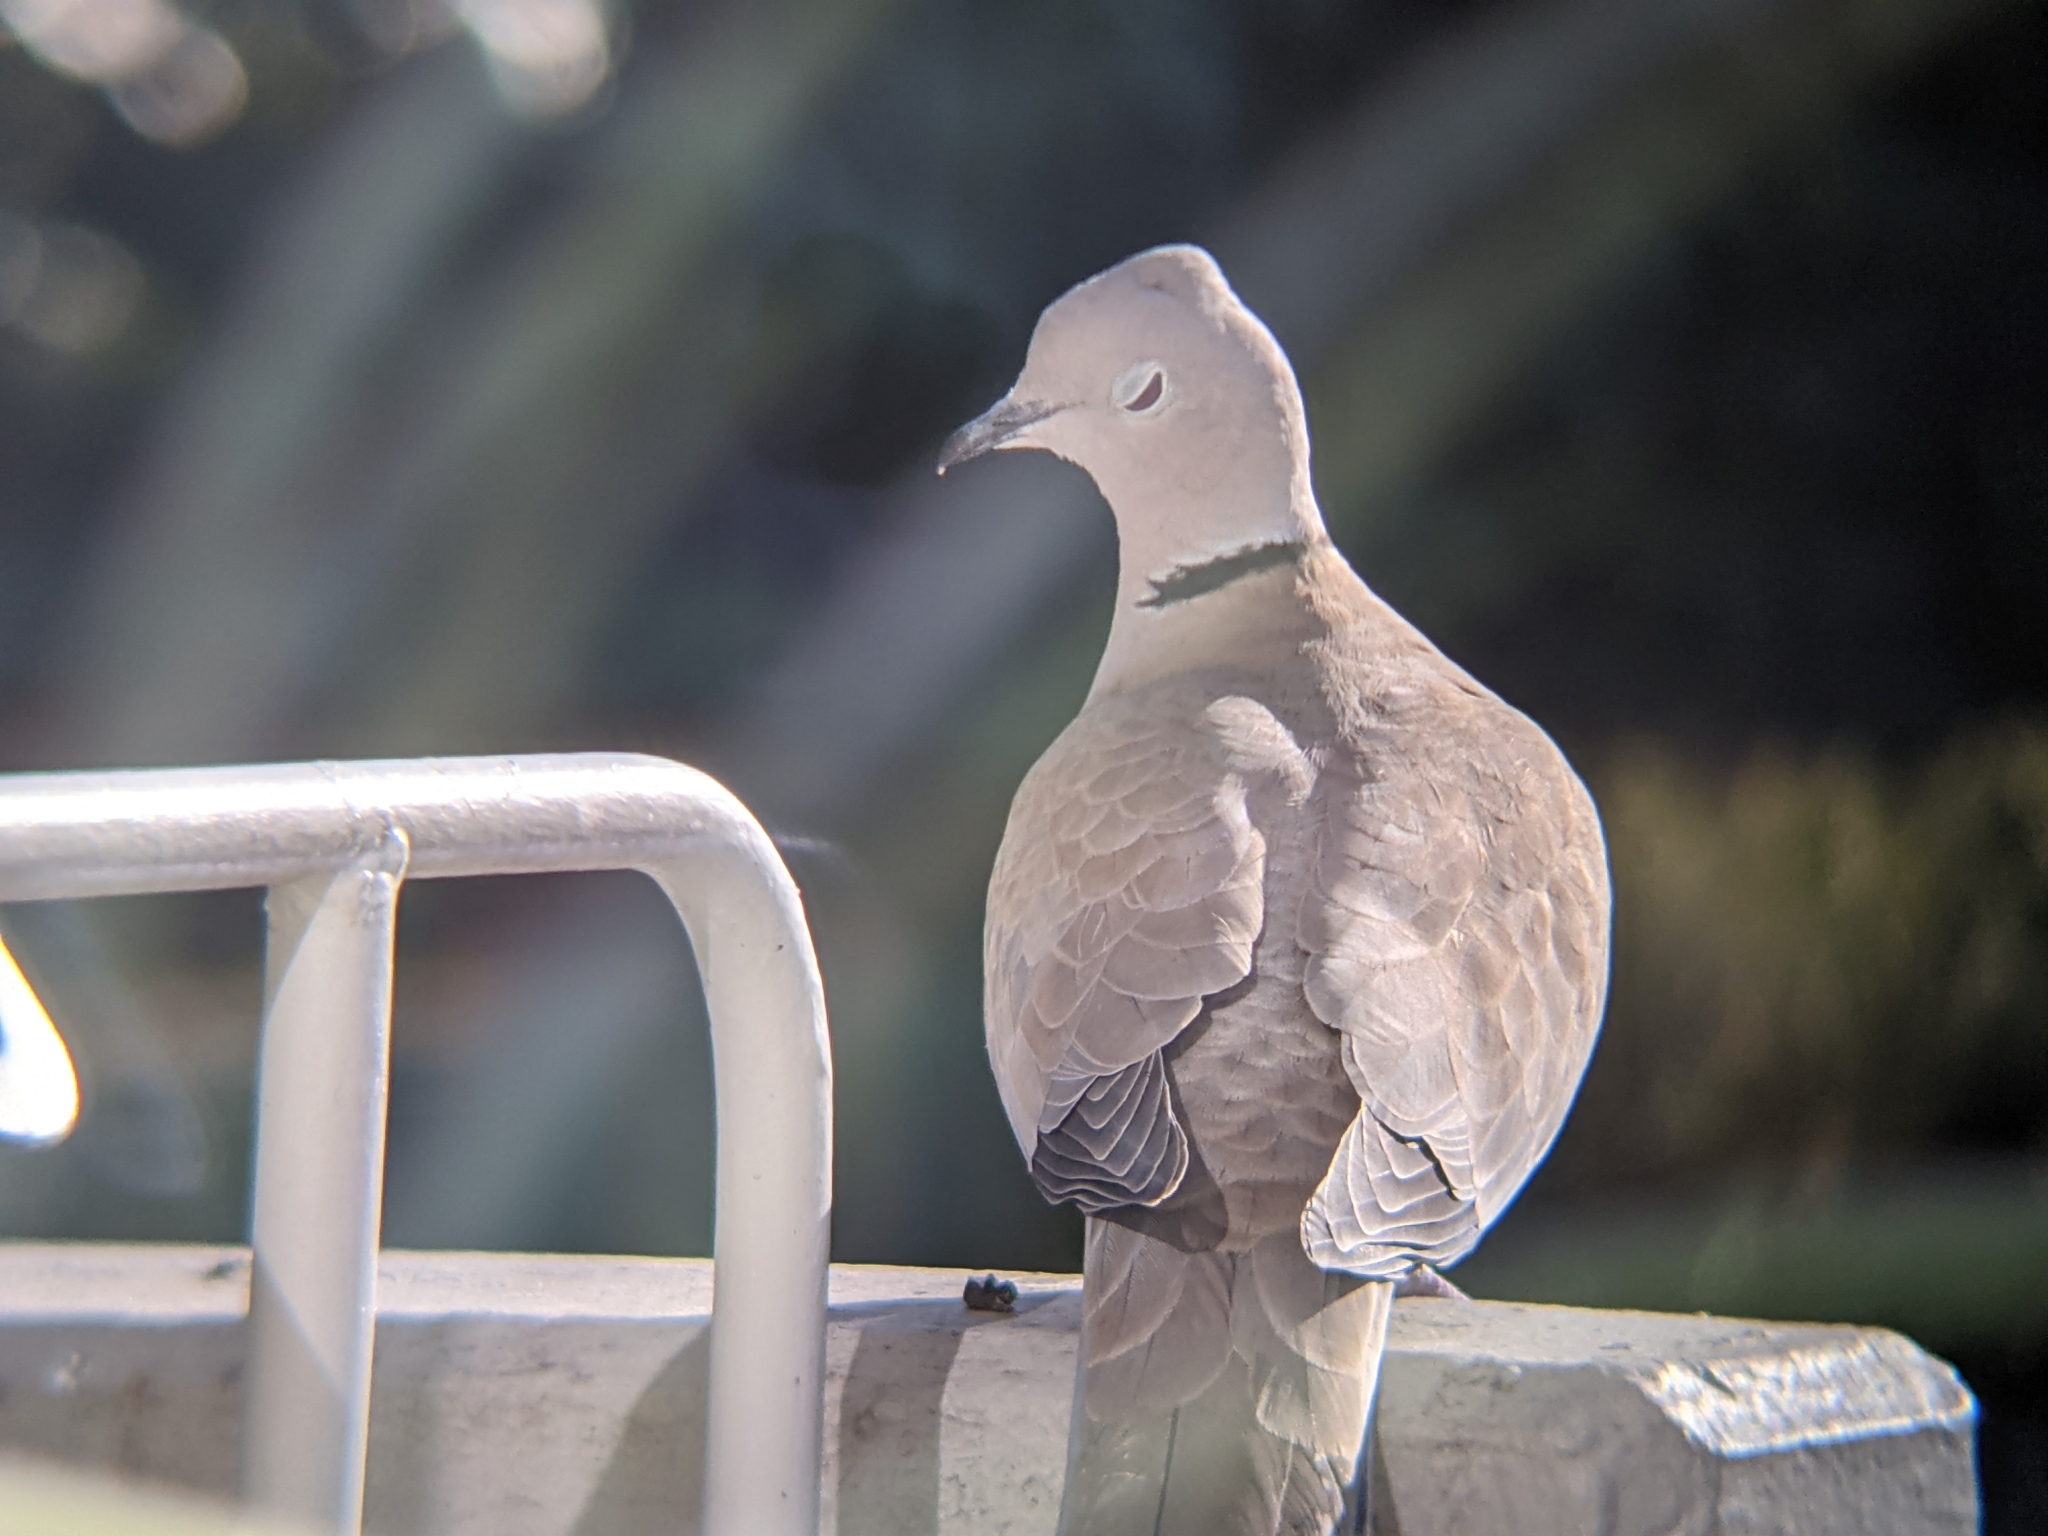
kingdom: Animalia
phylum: Chordata
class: Aves
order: Columbiformes
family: Columbidae
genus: Streptopelia
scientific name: Streptopelia decaocto
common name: Eurasian collared dove
